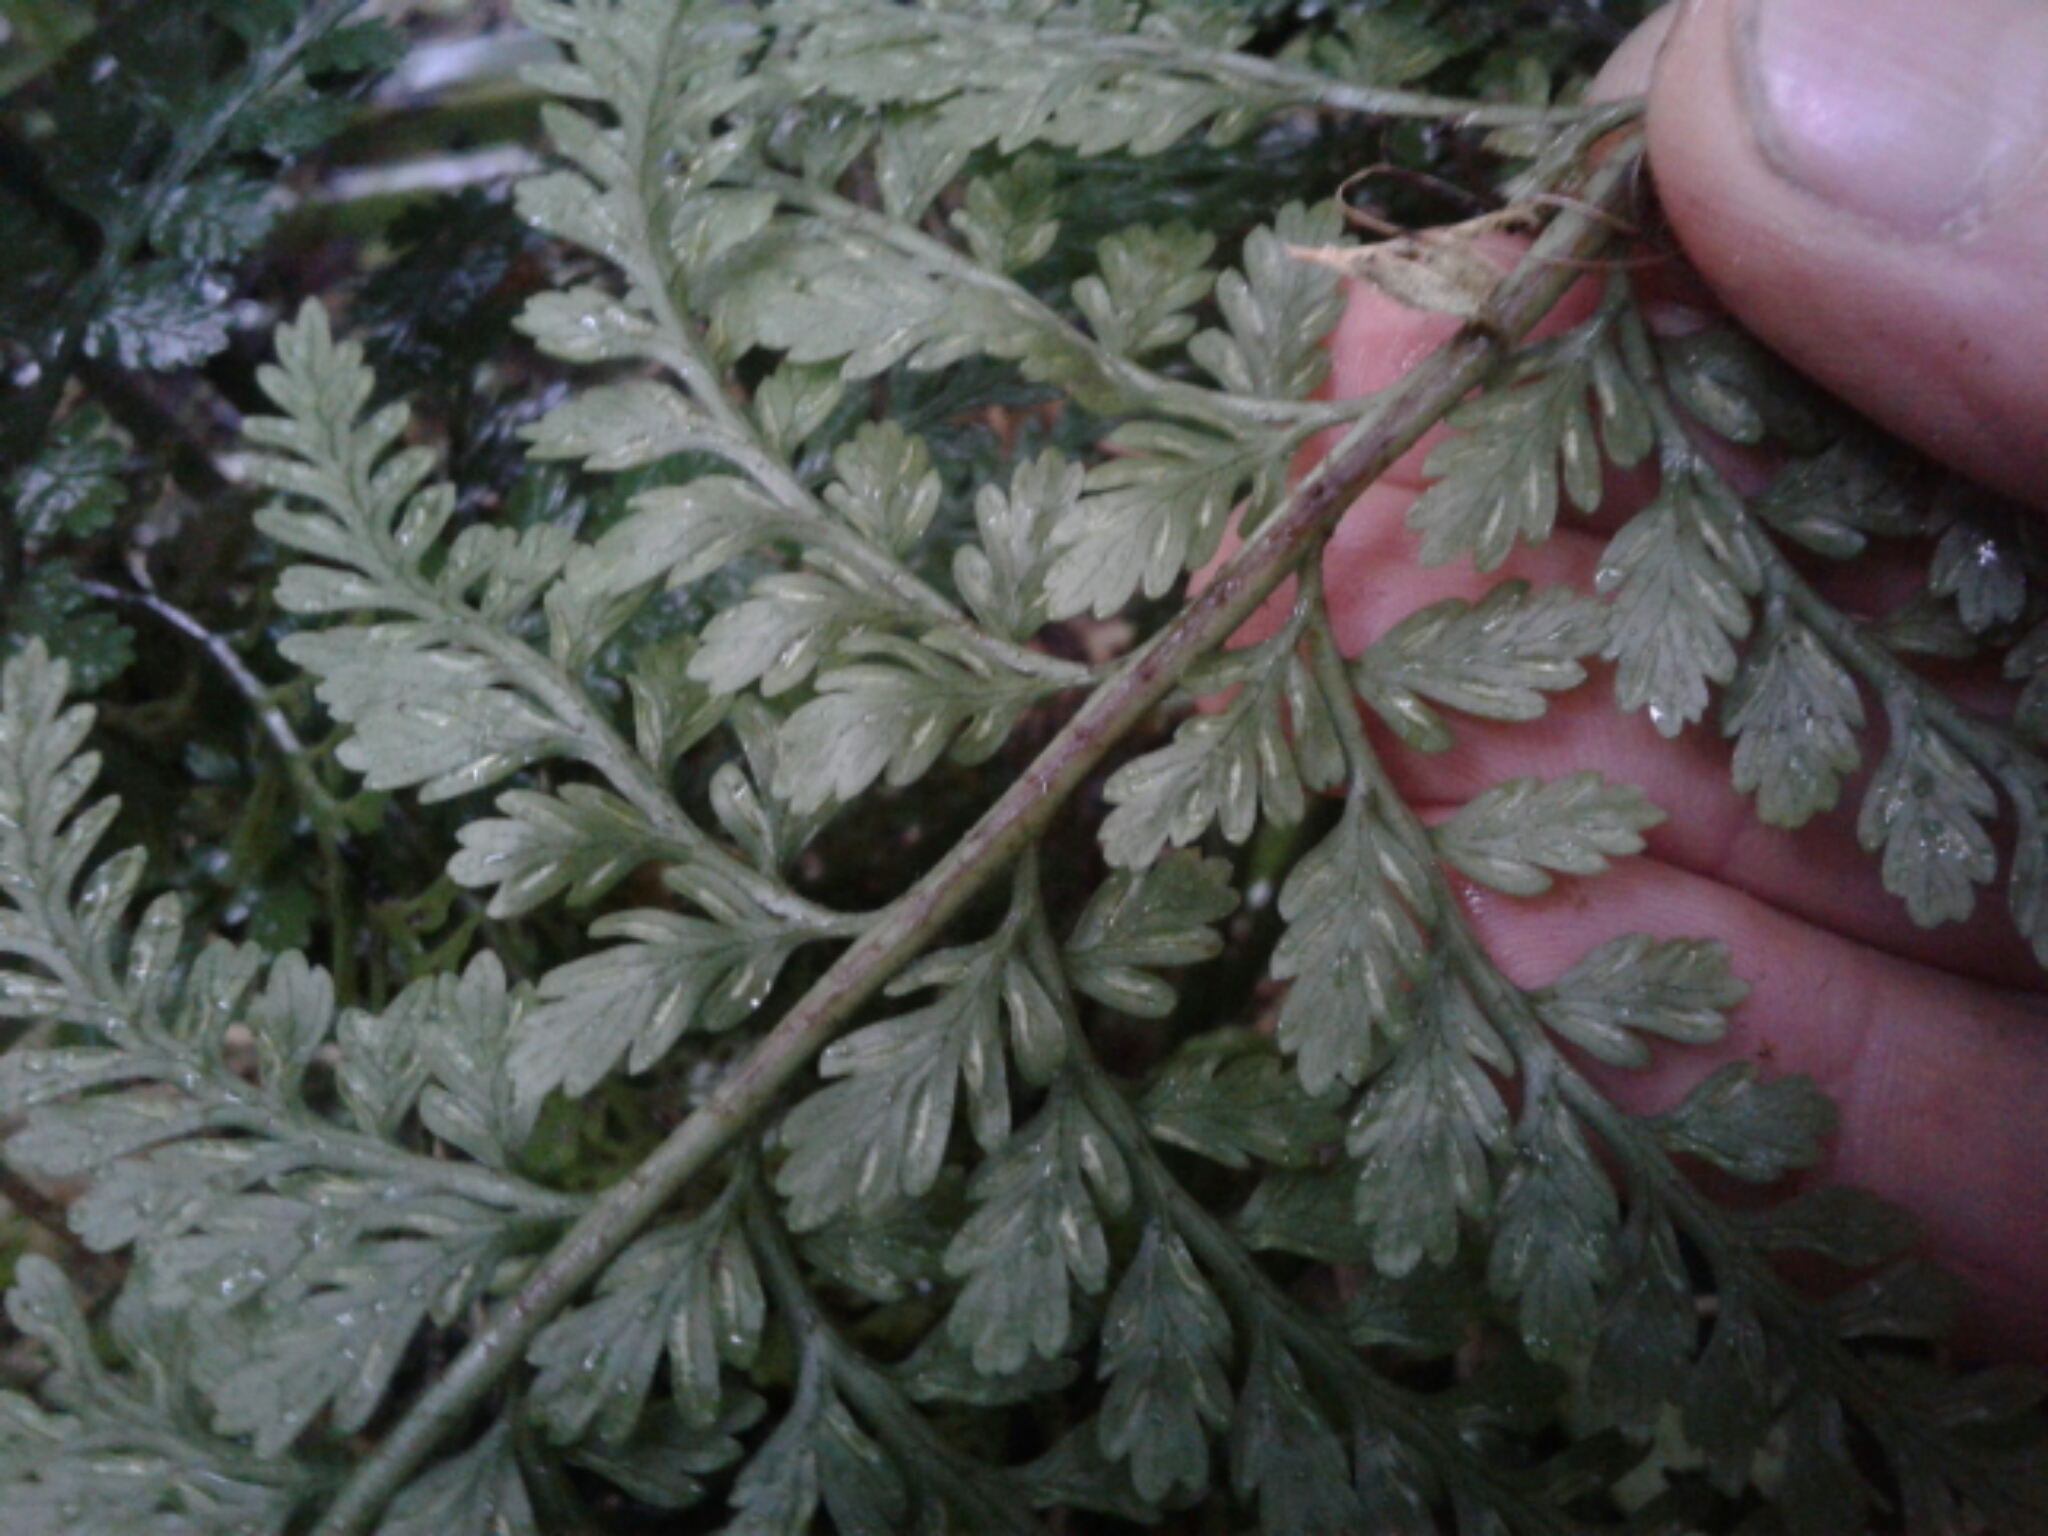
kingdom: Plantae
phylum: Tracheophyta
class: Polypodiopsida
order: Polypodiales
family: Aspleniaceae
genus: Asplenium
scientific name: Asplenium
